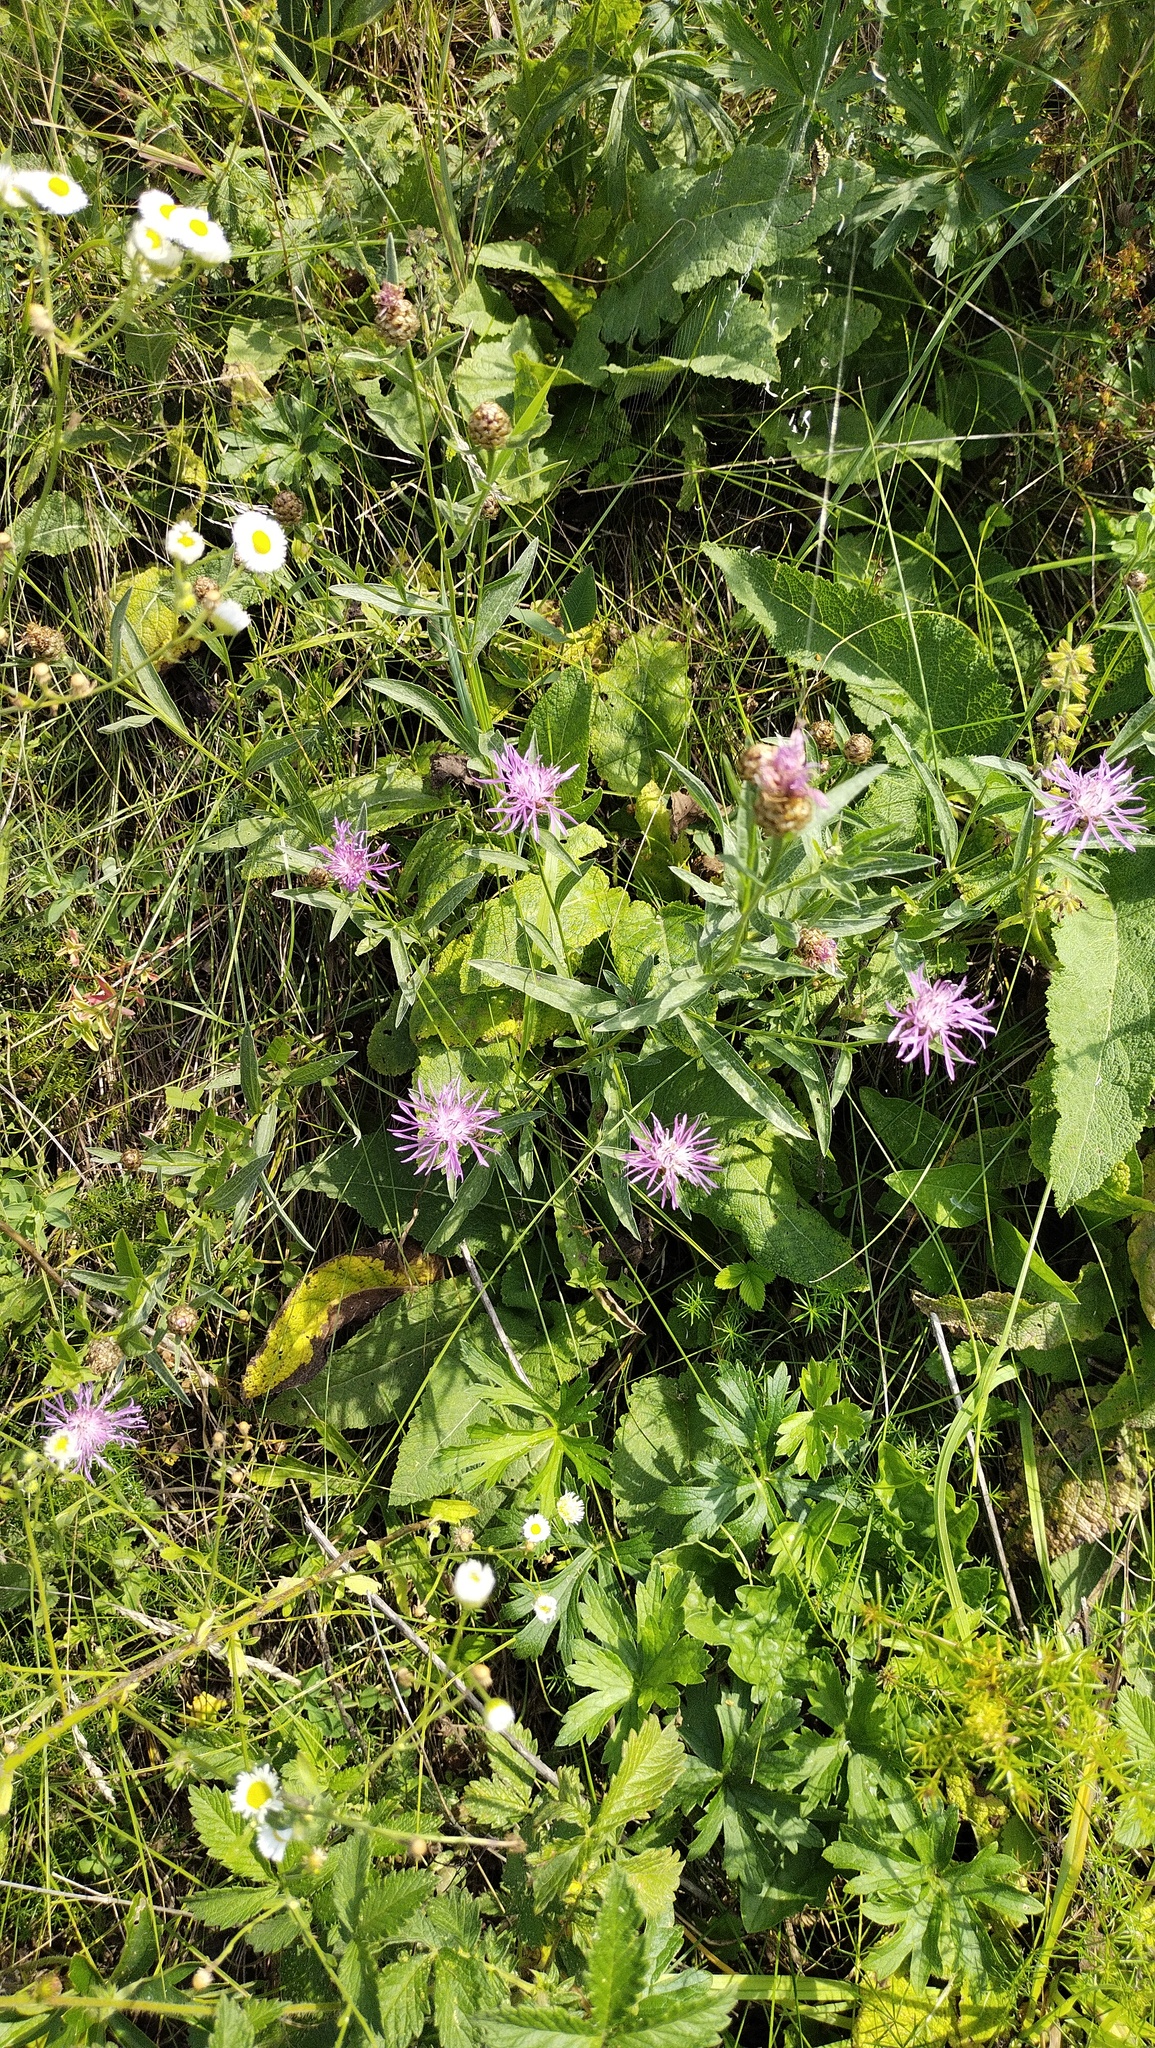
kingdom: Plantae
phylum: Tracheophyta
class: Magnoliopsida
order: Asterales
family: Asteraceae
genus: Centaurea
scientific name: Centaurea jacea
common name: Brown knapweed
